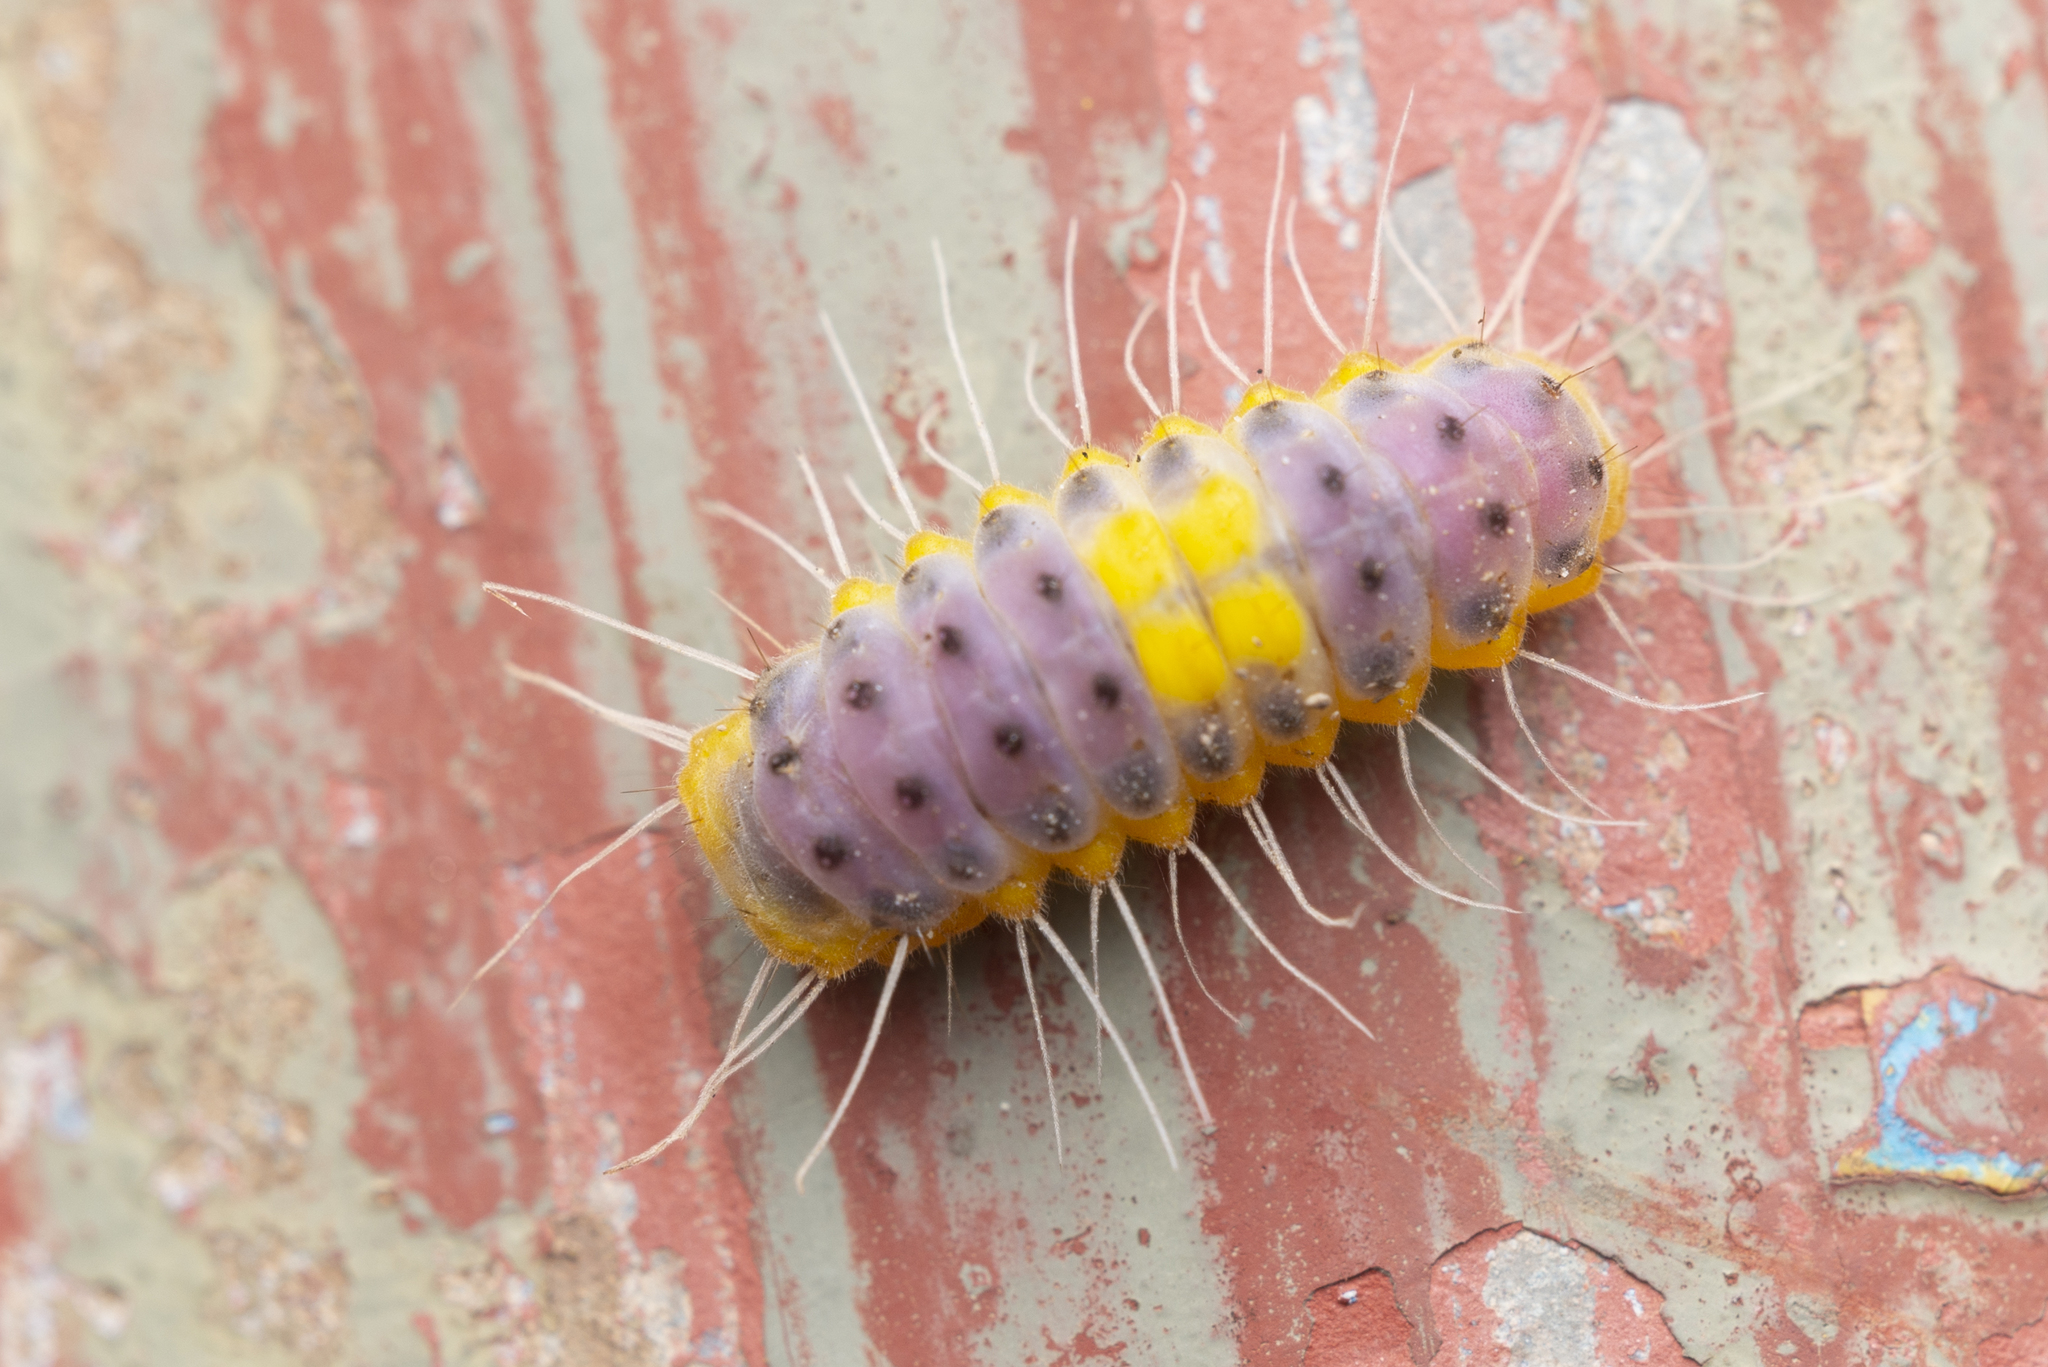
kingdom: Animalia
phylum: Arthropoda
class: Insecta
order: Lepidoptera
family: Zygaenidae
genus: Retina
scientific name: Retina rubrivitta
